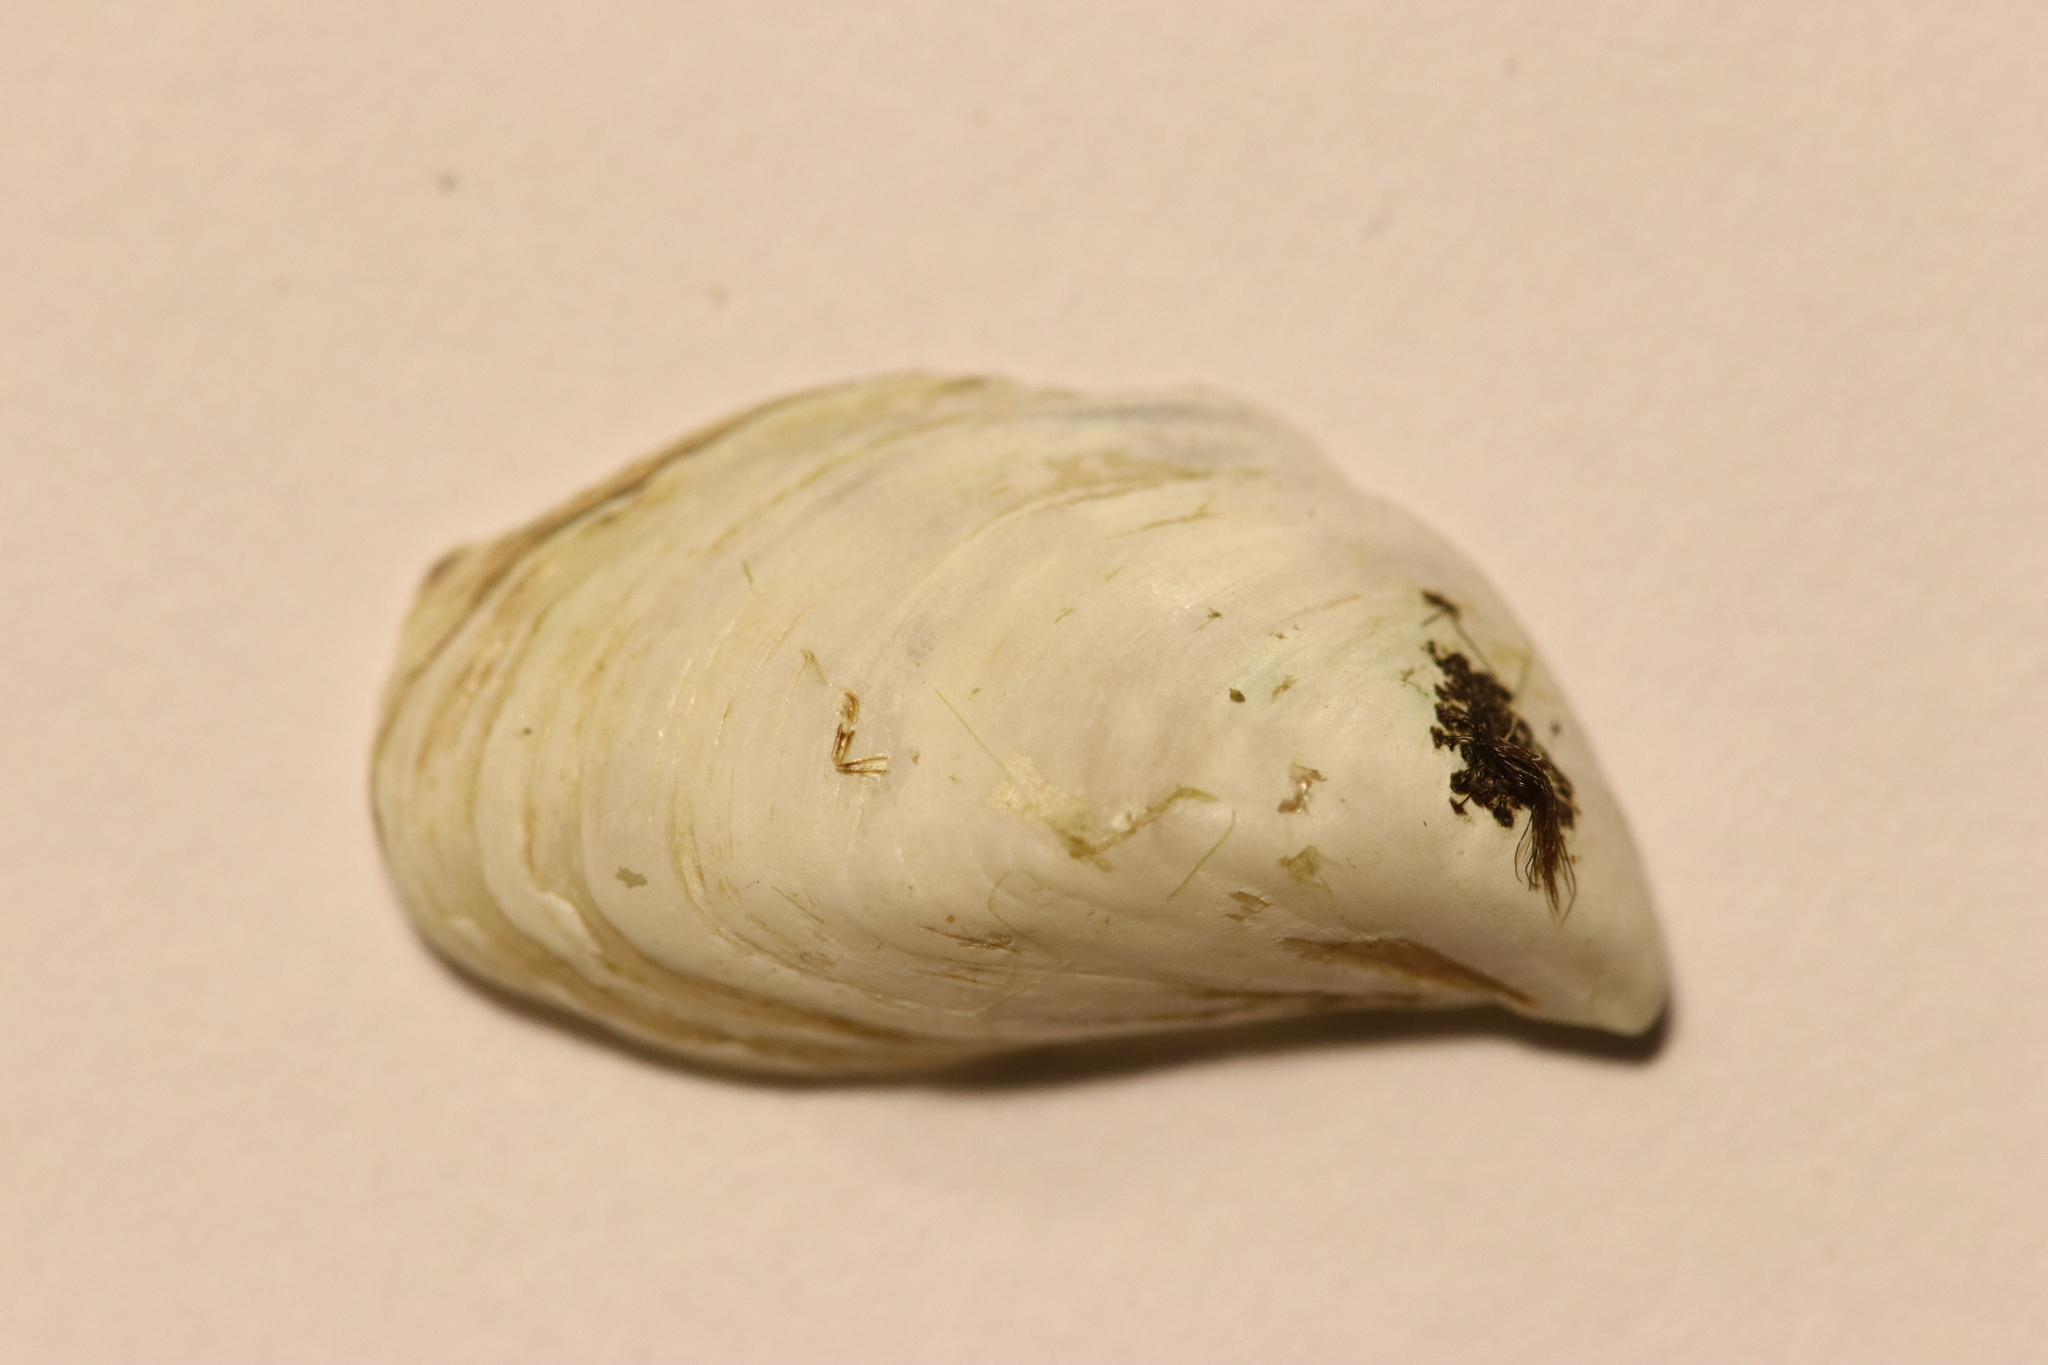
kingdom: Animalia
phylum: Mollusca
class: Bivalvia
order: Myida
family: Dreissenidae
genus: Dreissena
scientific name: Dreissena bugensis
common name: Quagga mussel
